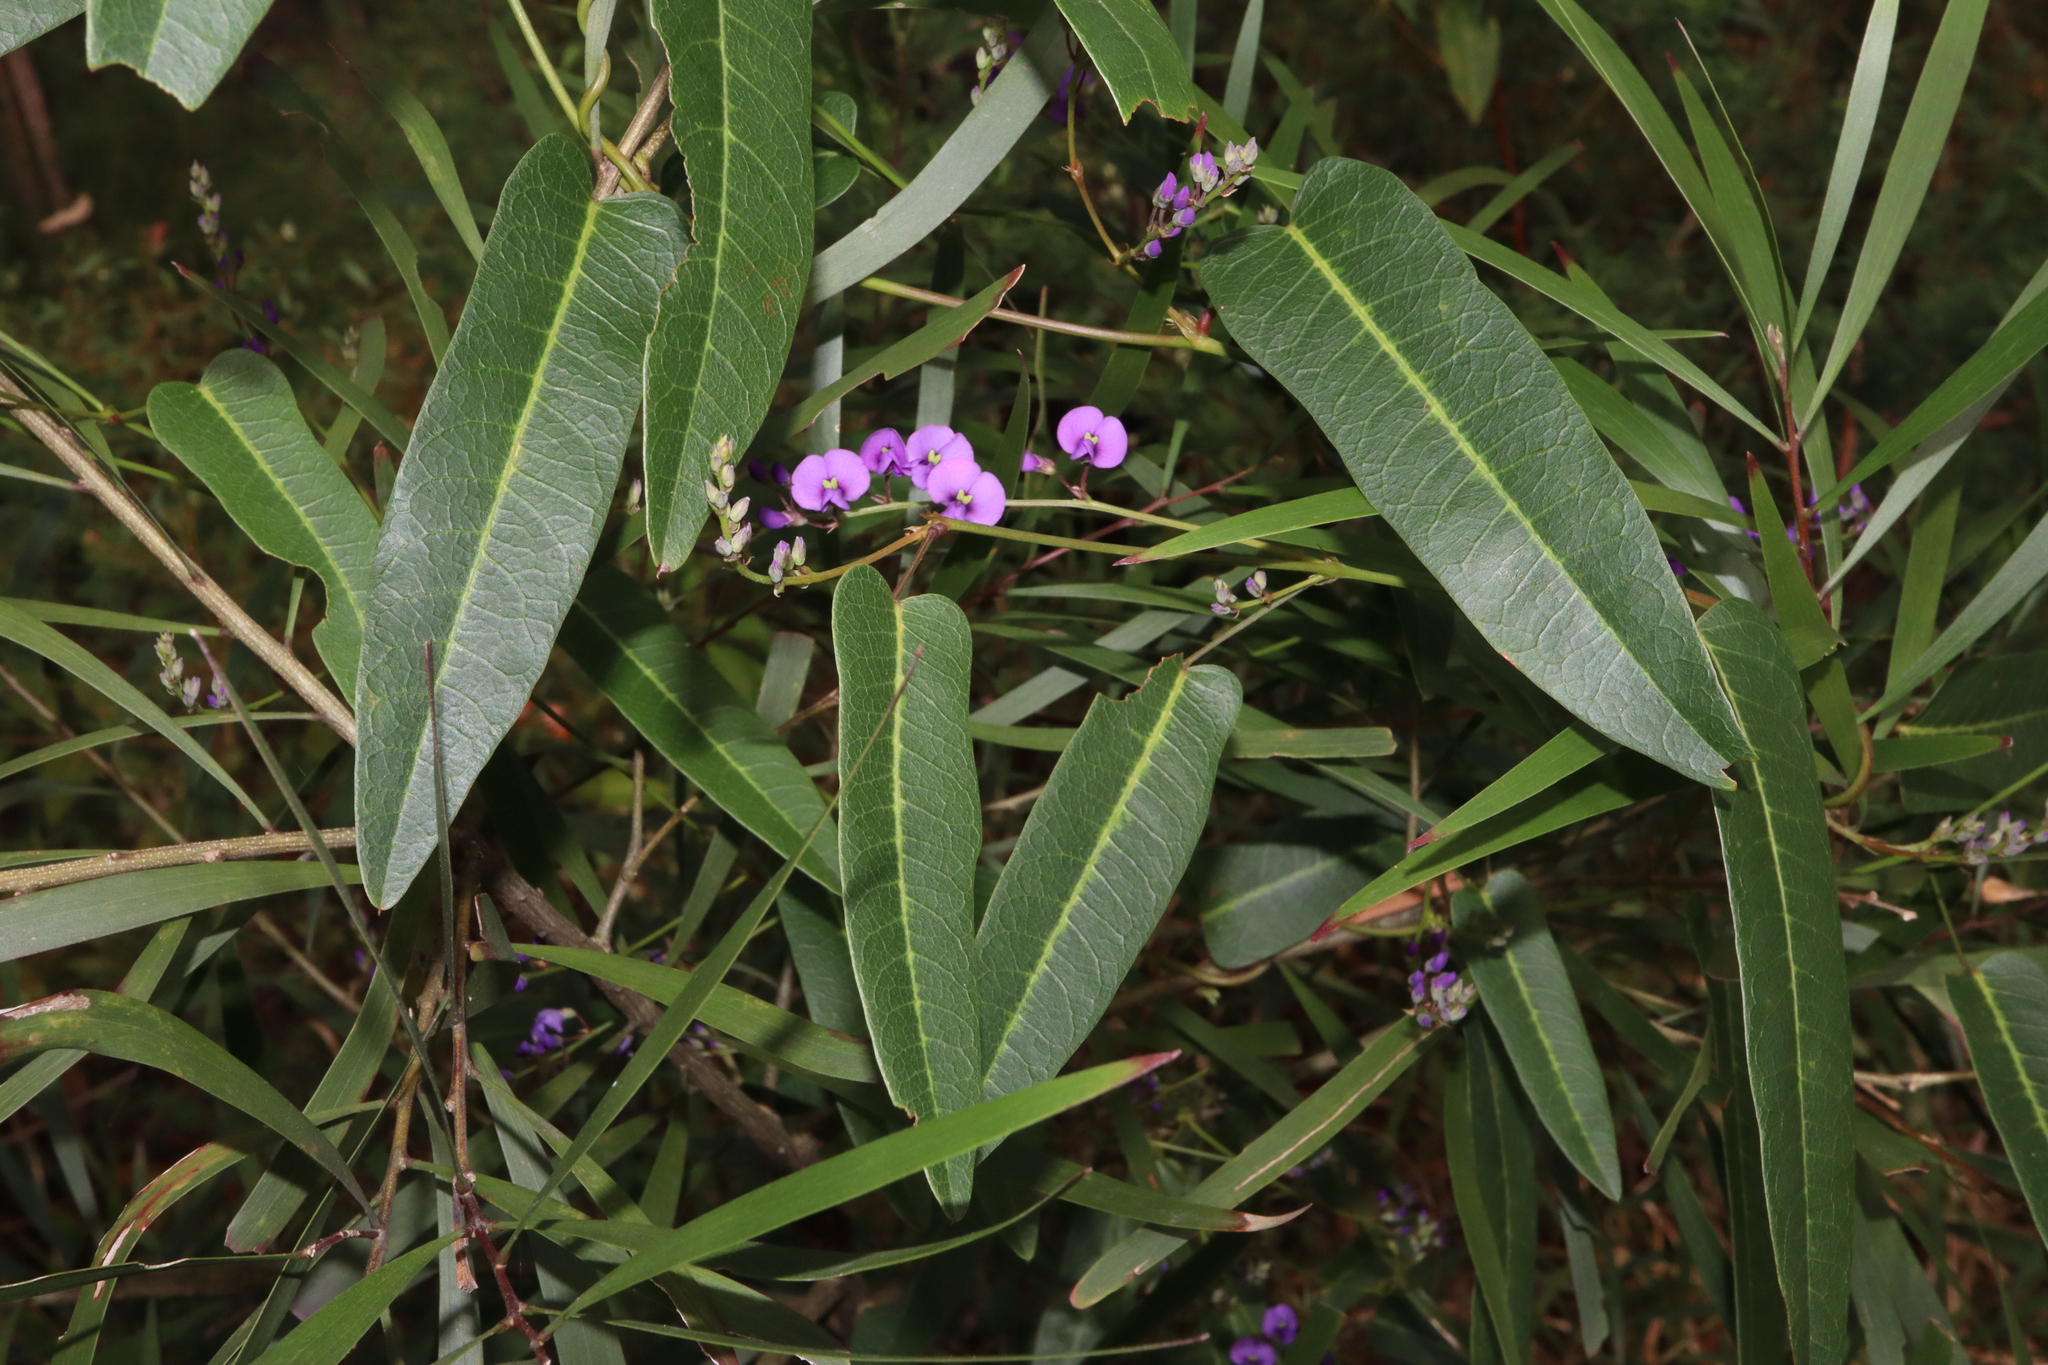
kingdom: Plantae
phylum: Tracheophyta
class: Magnoliopsida
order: Fabales
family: Fabaceae
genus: Hardenbergia
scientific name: Hardenbergia violacea
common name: Coral-pea
